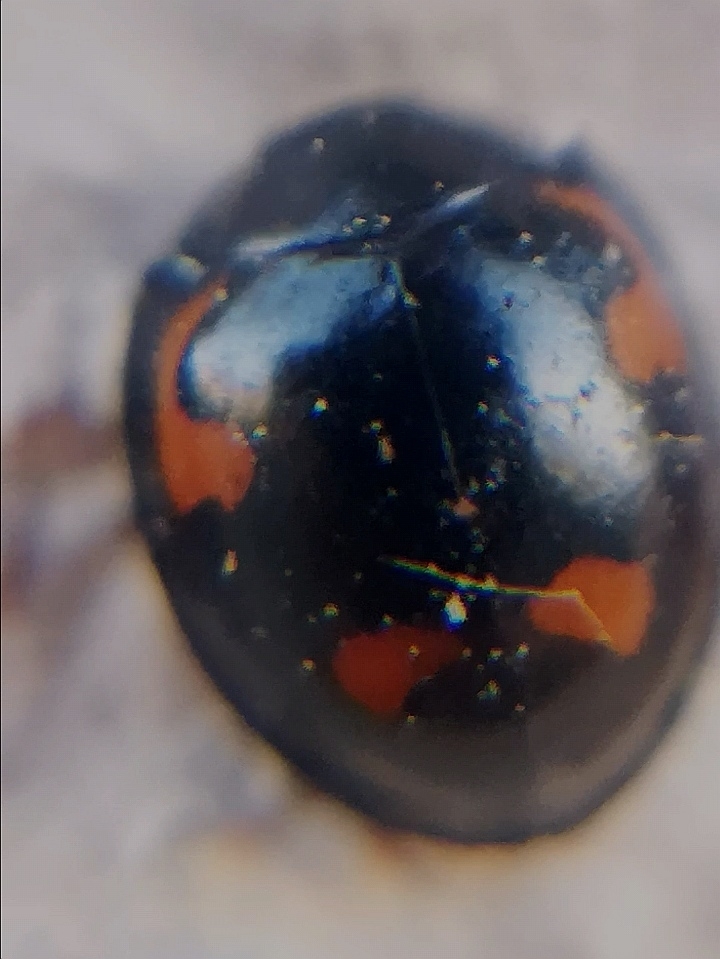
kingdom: Animalia
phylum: Arthropoda
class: Insecta
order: Coleoptera
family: Coccinellidae
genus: Brumus
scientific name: Brumus quadripustulatus
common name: Ladybird beetle
